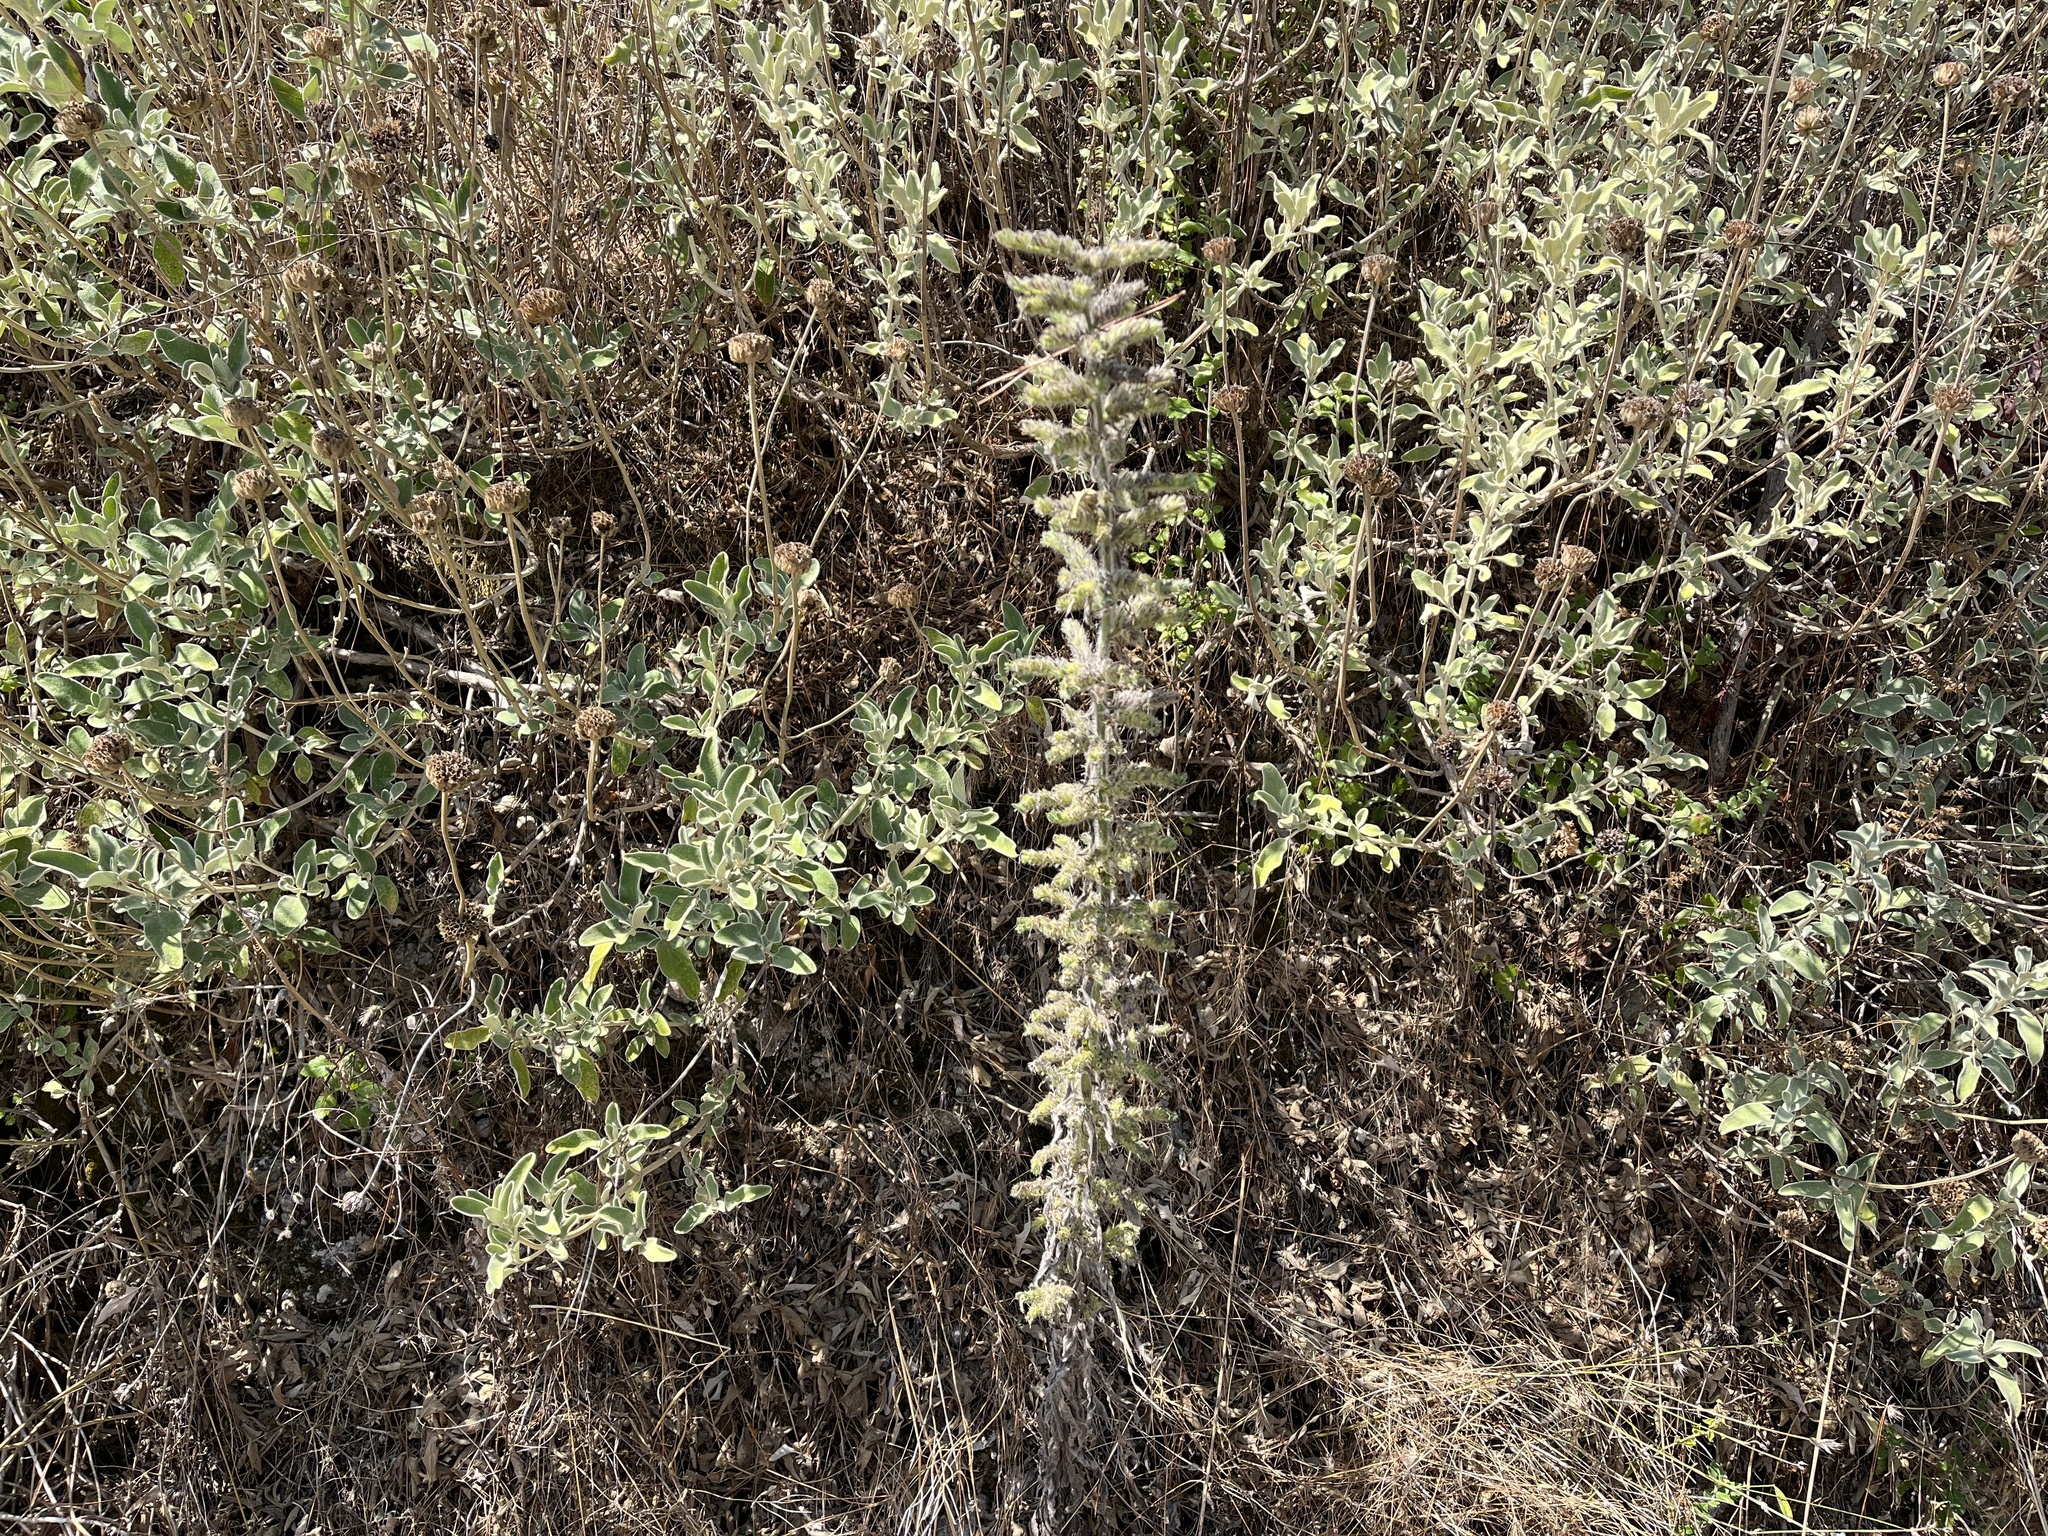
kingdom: Plantae
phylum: Tracheophyta
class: Magnoliopsida
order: Boraginales
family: Boraginaceae
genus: Echium
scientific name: Echium italicum
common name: Italian viper's bugloss
